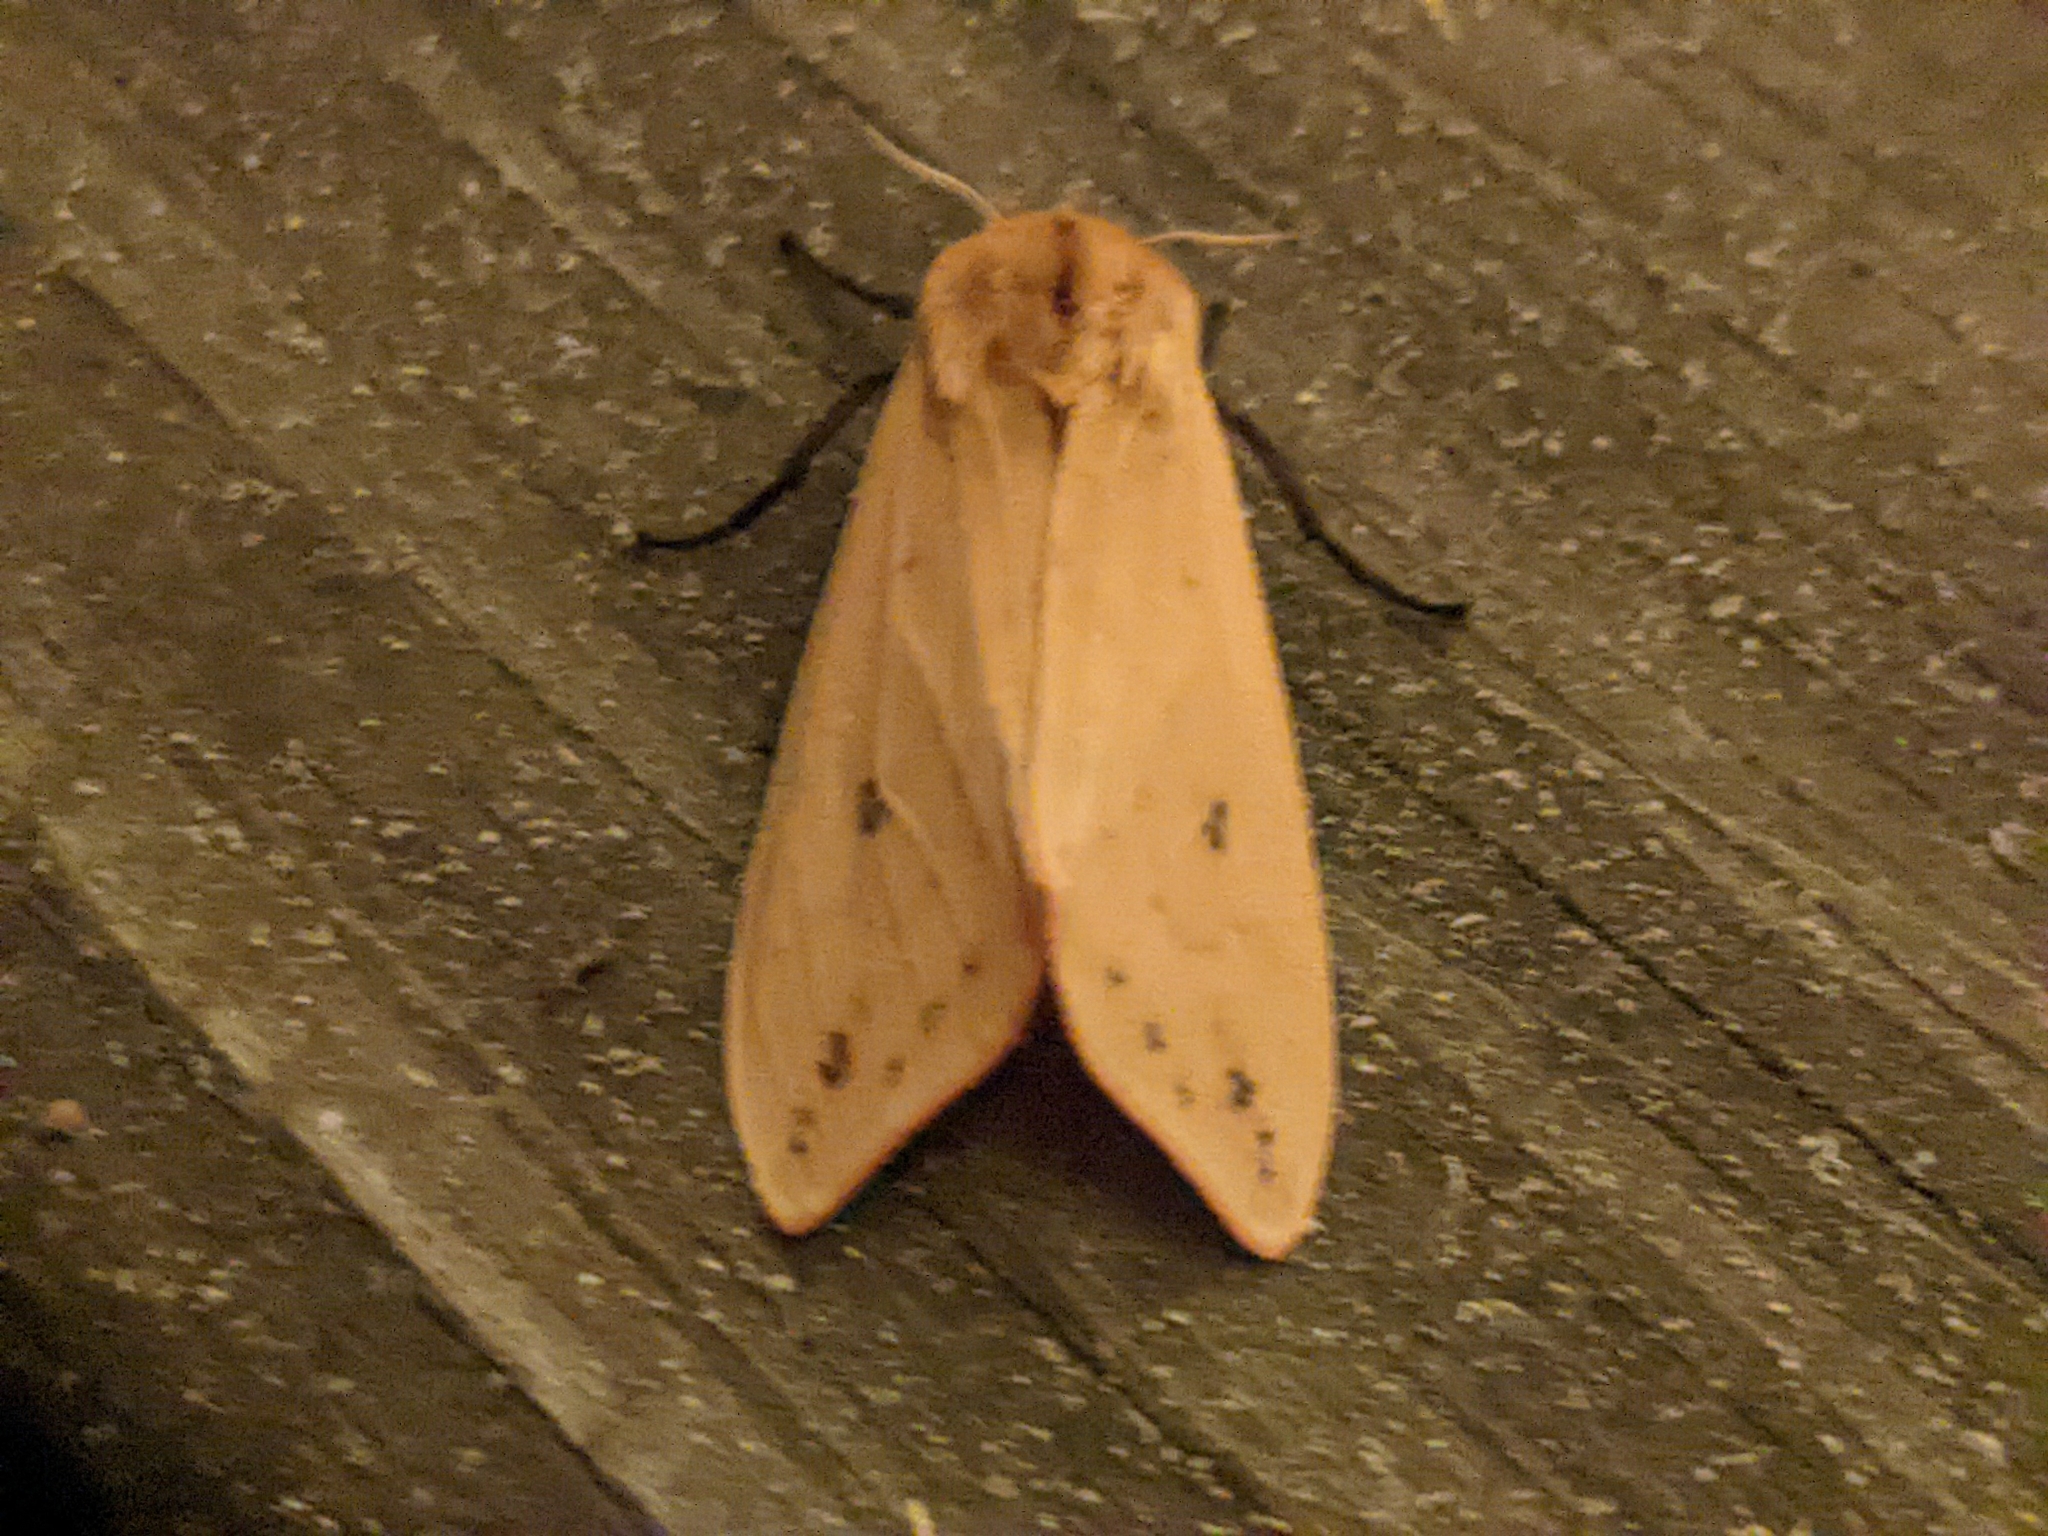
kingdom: Animalia
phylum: Arthropoda
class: Insecta
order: Lepidoptera
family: Erebidae
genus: Pyrrharctia
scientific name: Pyrrharctia isabella
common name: Isabella tiger moth
